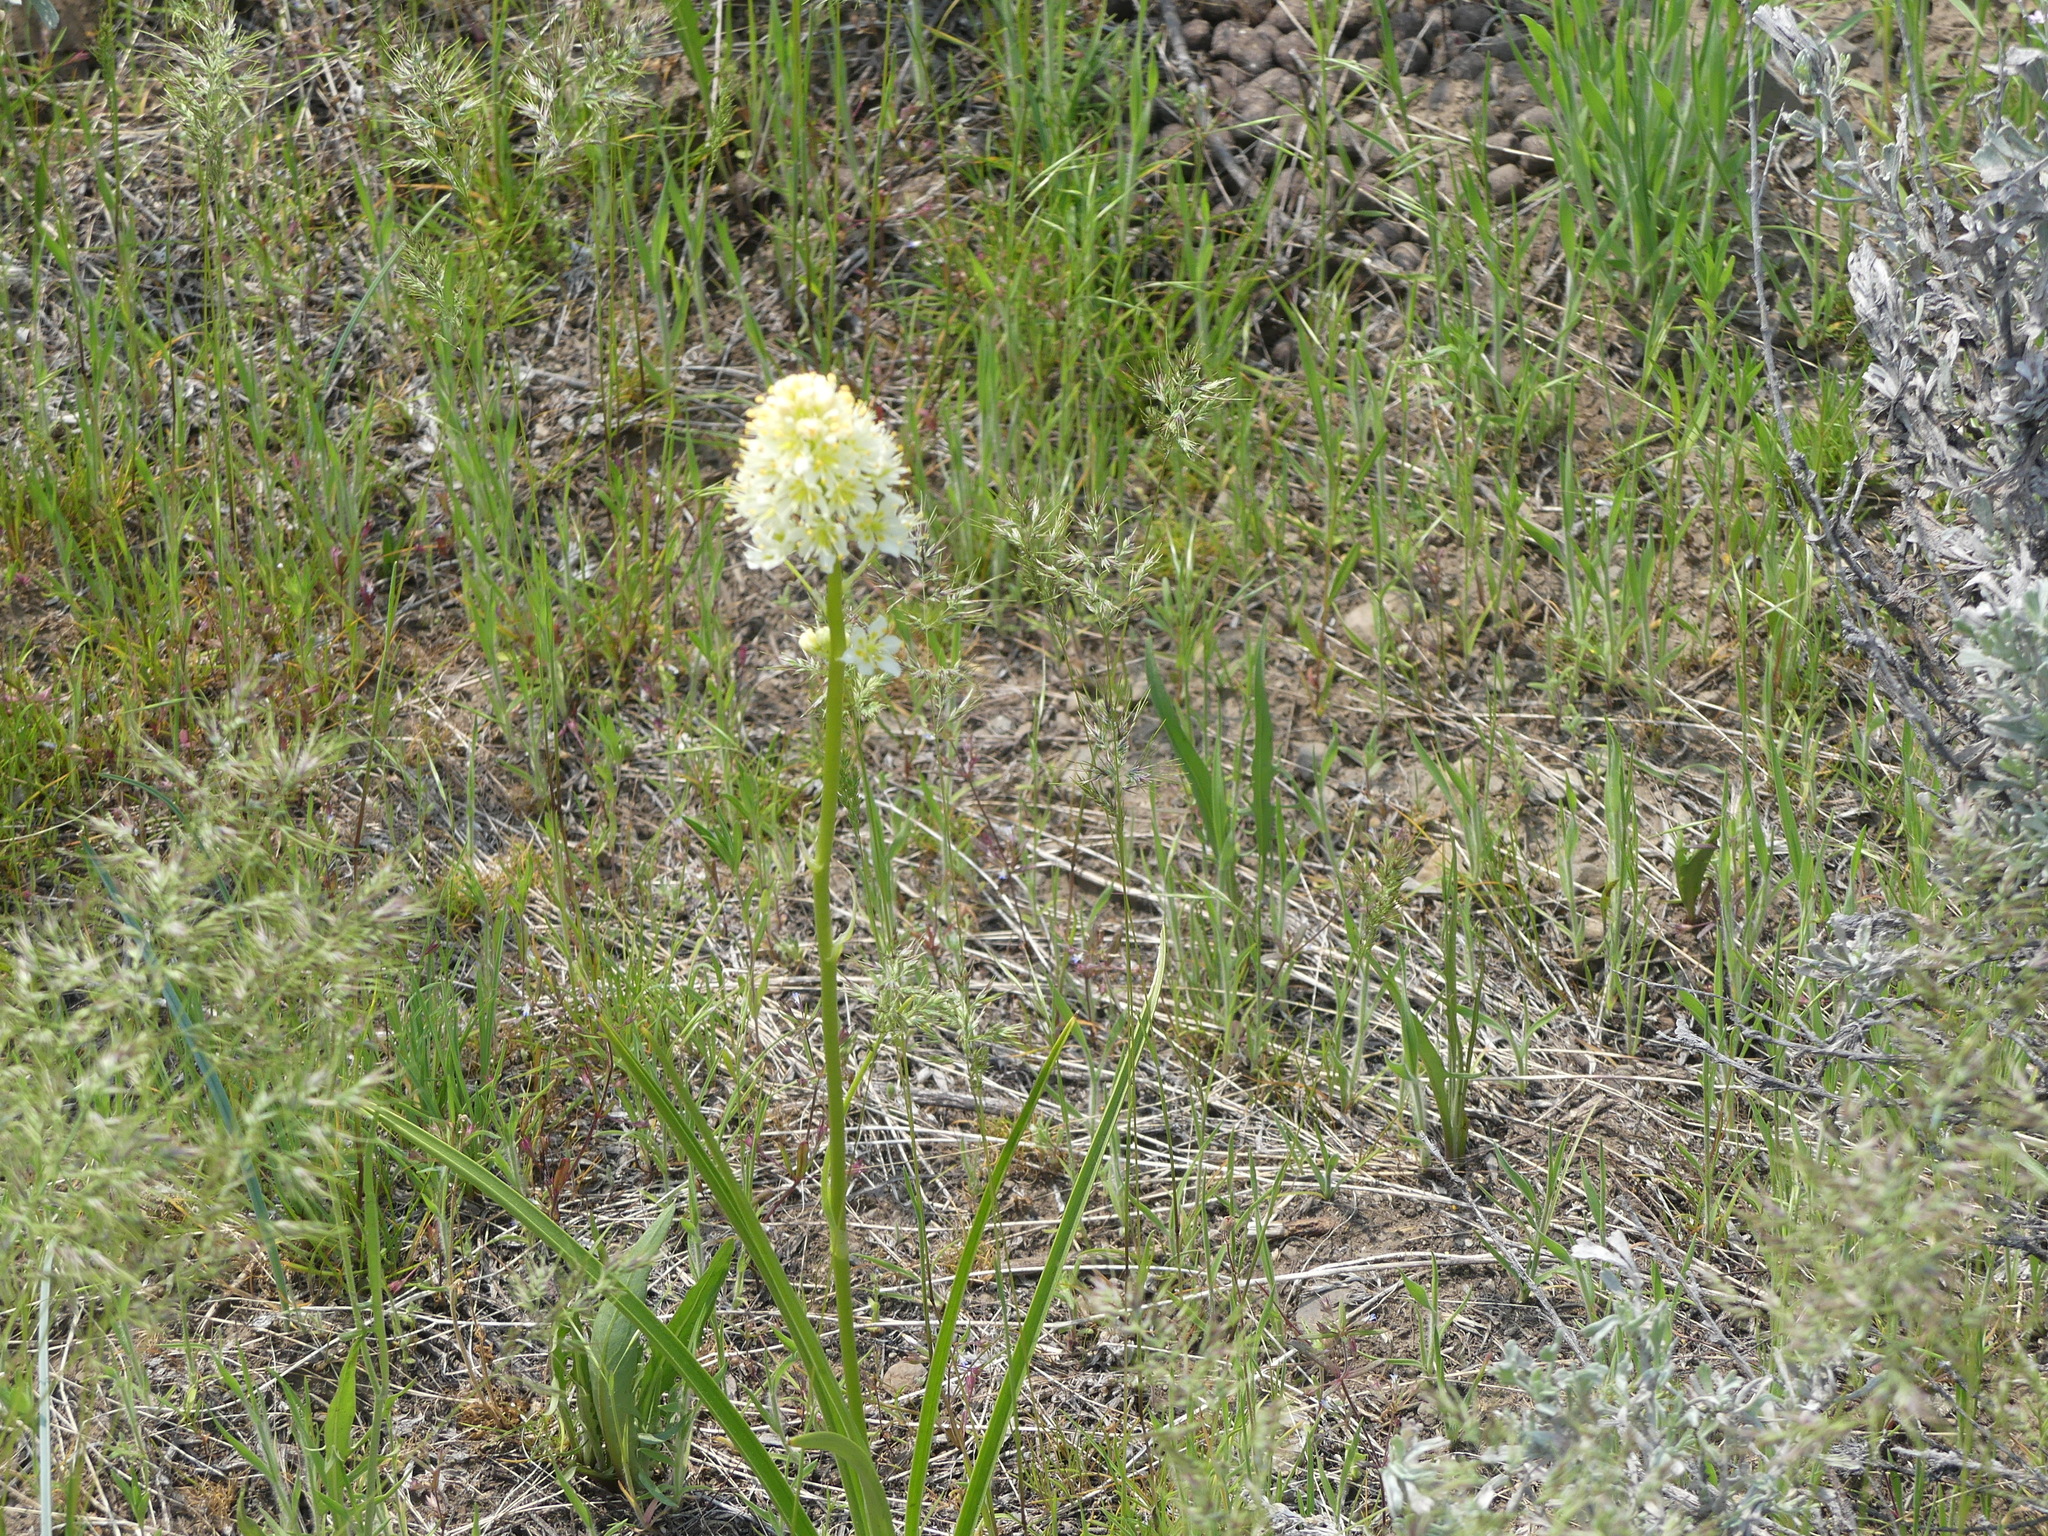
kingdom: Plantae
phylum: Tracheophyta
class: Liliopsida
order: Liliales
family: Melanthiaceae
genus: Toxicoscordion
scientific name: Toxicoscordion venenosum
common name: Meadow death camas
